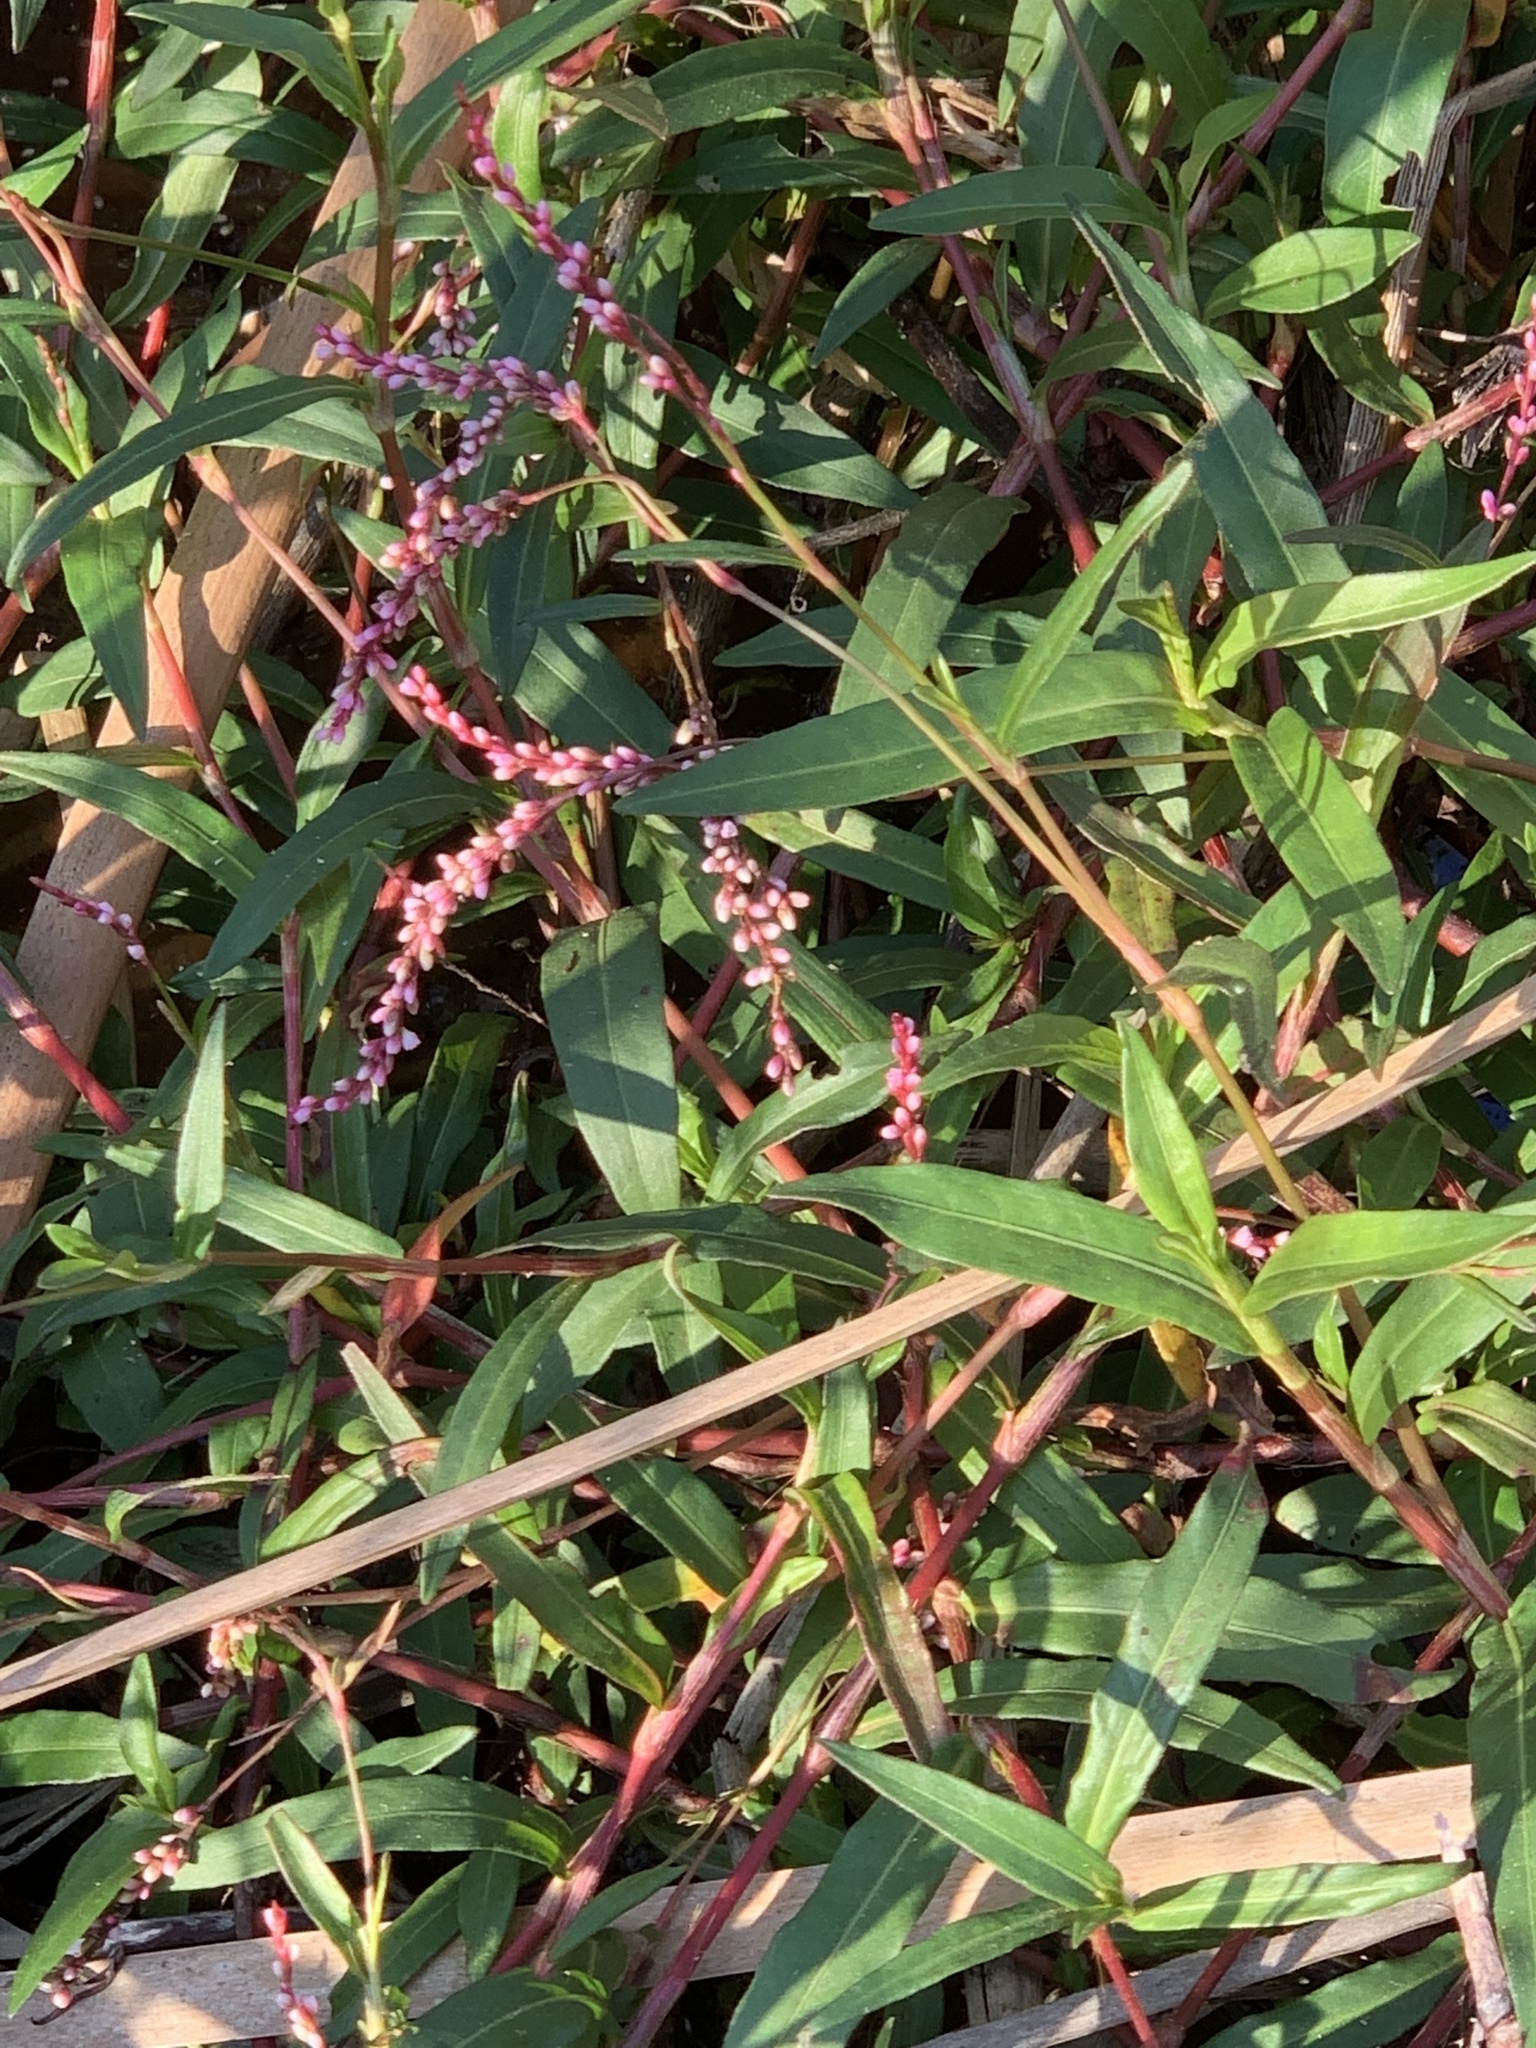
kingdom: Plantae
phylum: Tracheophyta
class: Magnoliopsida
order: Caryophyllales
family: Polygonaceae
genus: Persicaria
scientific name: Persicaria decipiens
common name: Willow-weed
